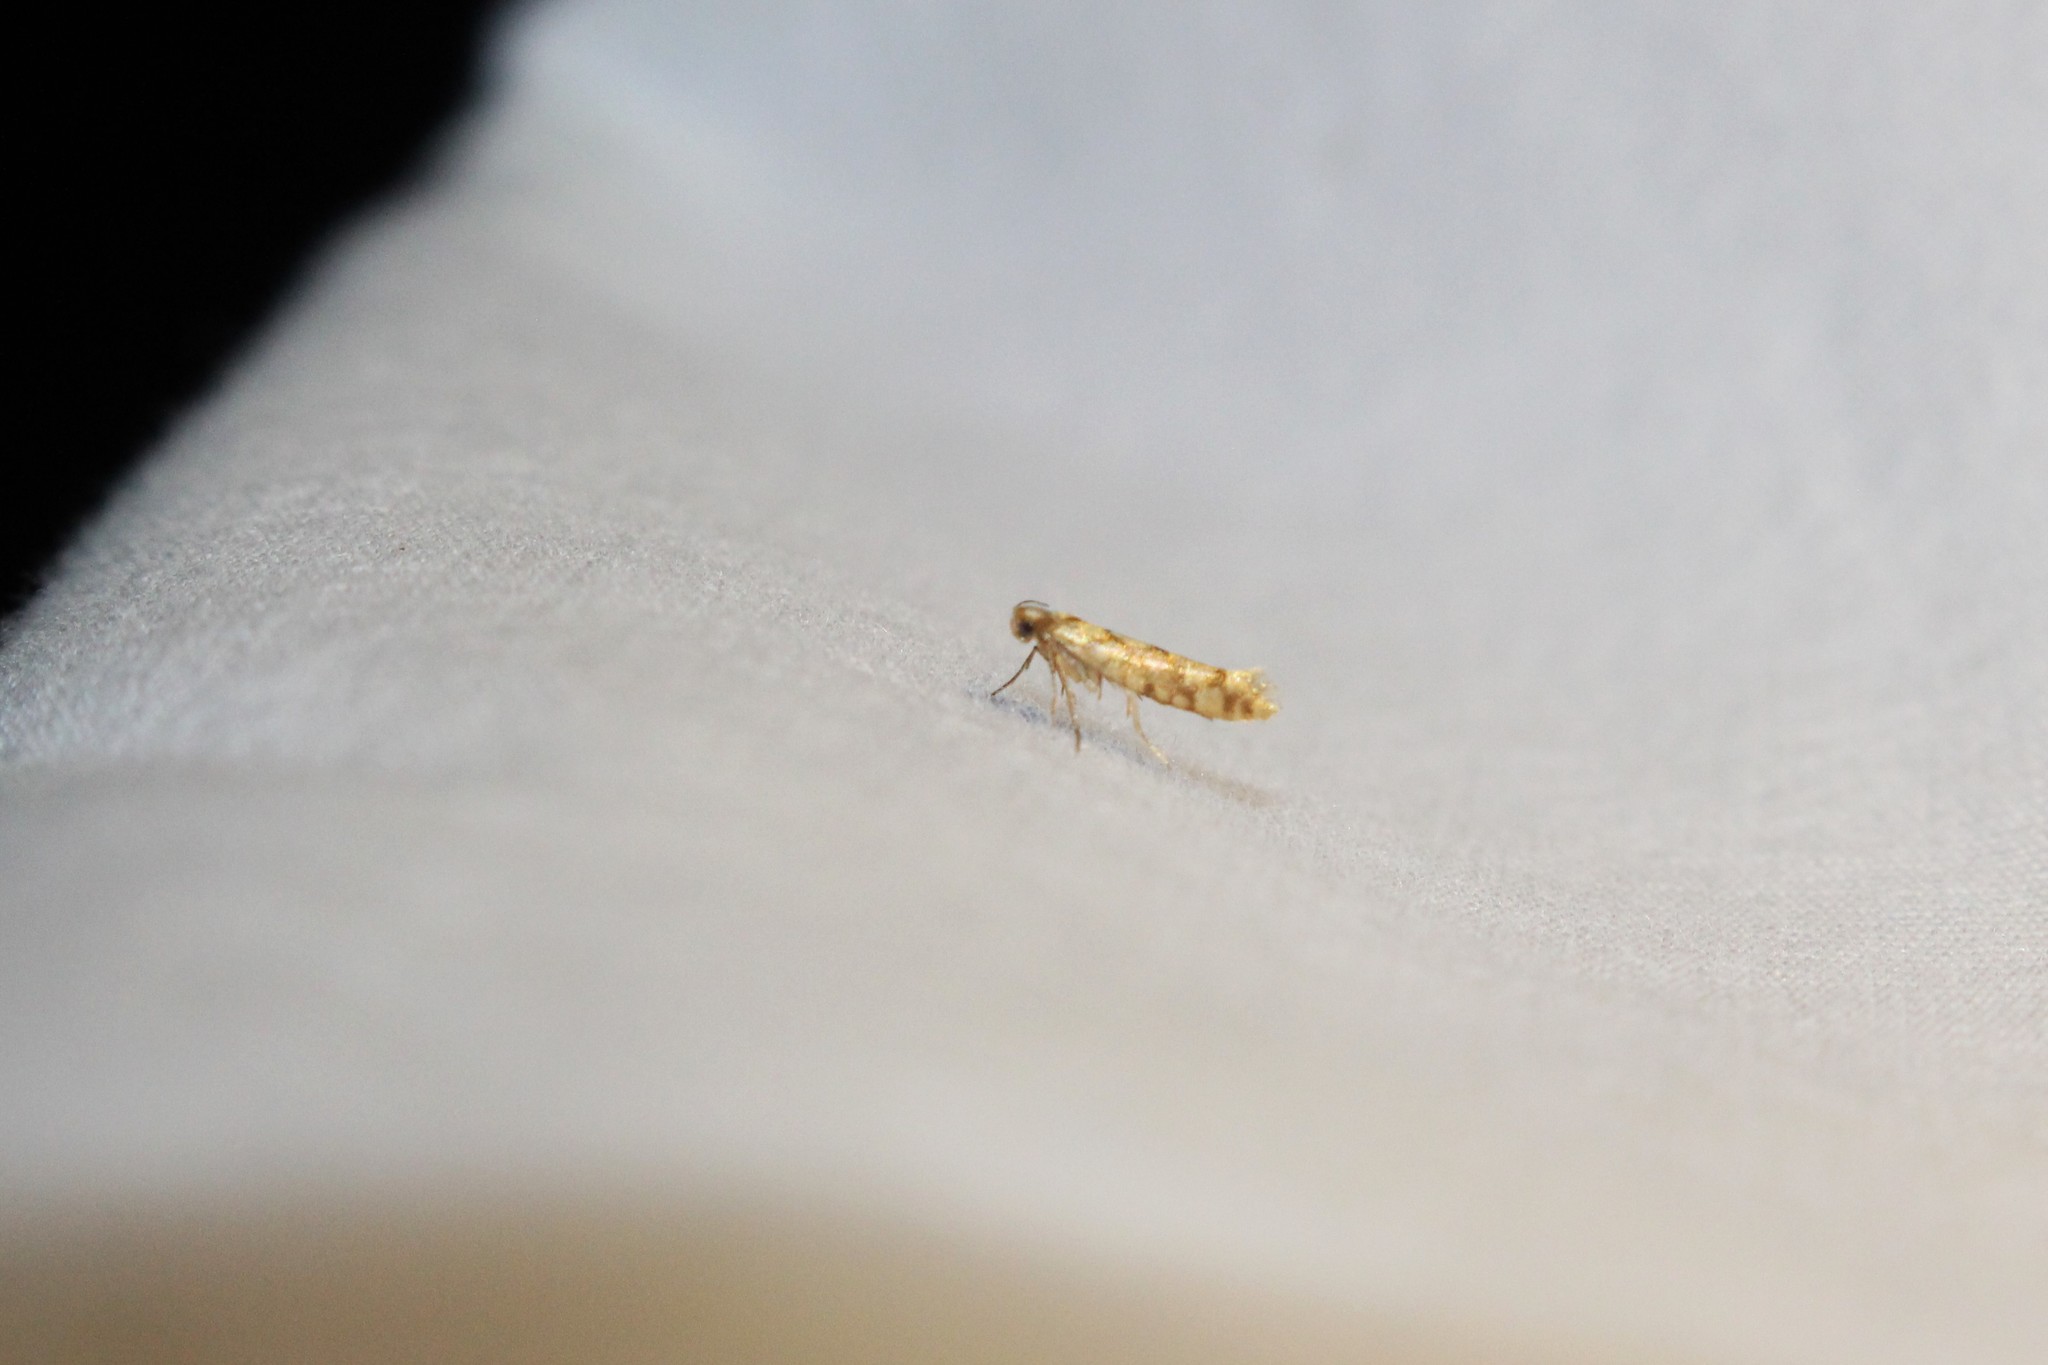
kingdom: Animalia
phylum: Arthropoda
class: Insecta
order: Lepidoptera
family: Argyresthiidae
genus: Argyresthia
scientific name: Argyresthia alternatella
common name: Juniper seed moth
